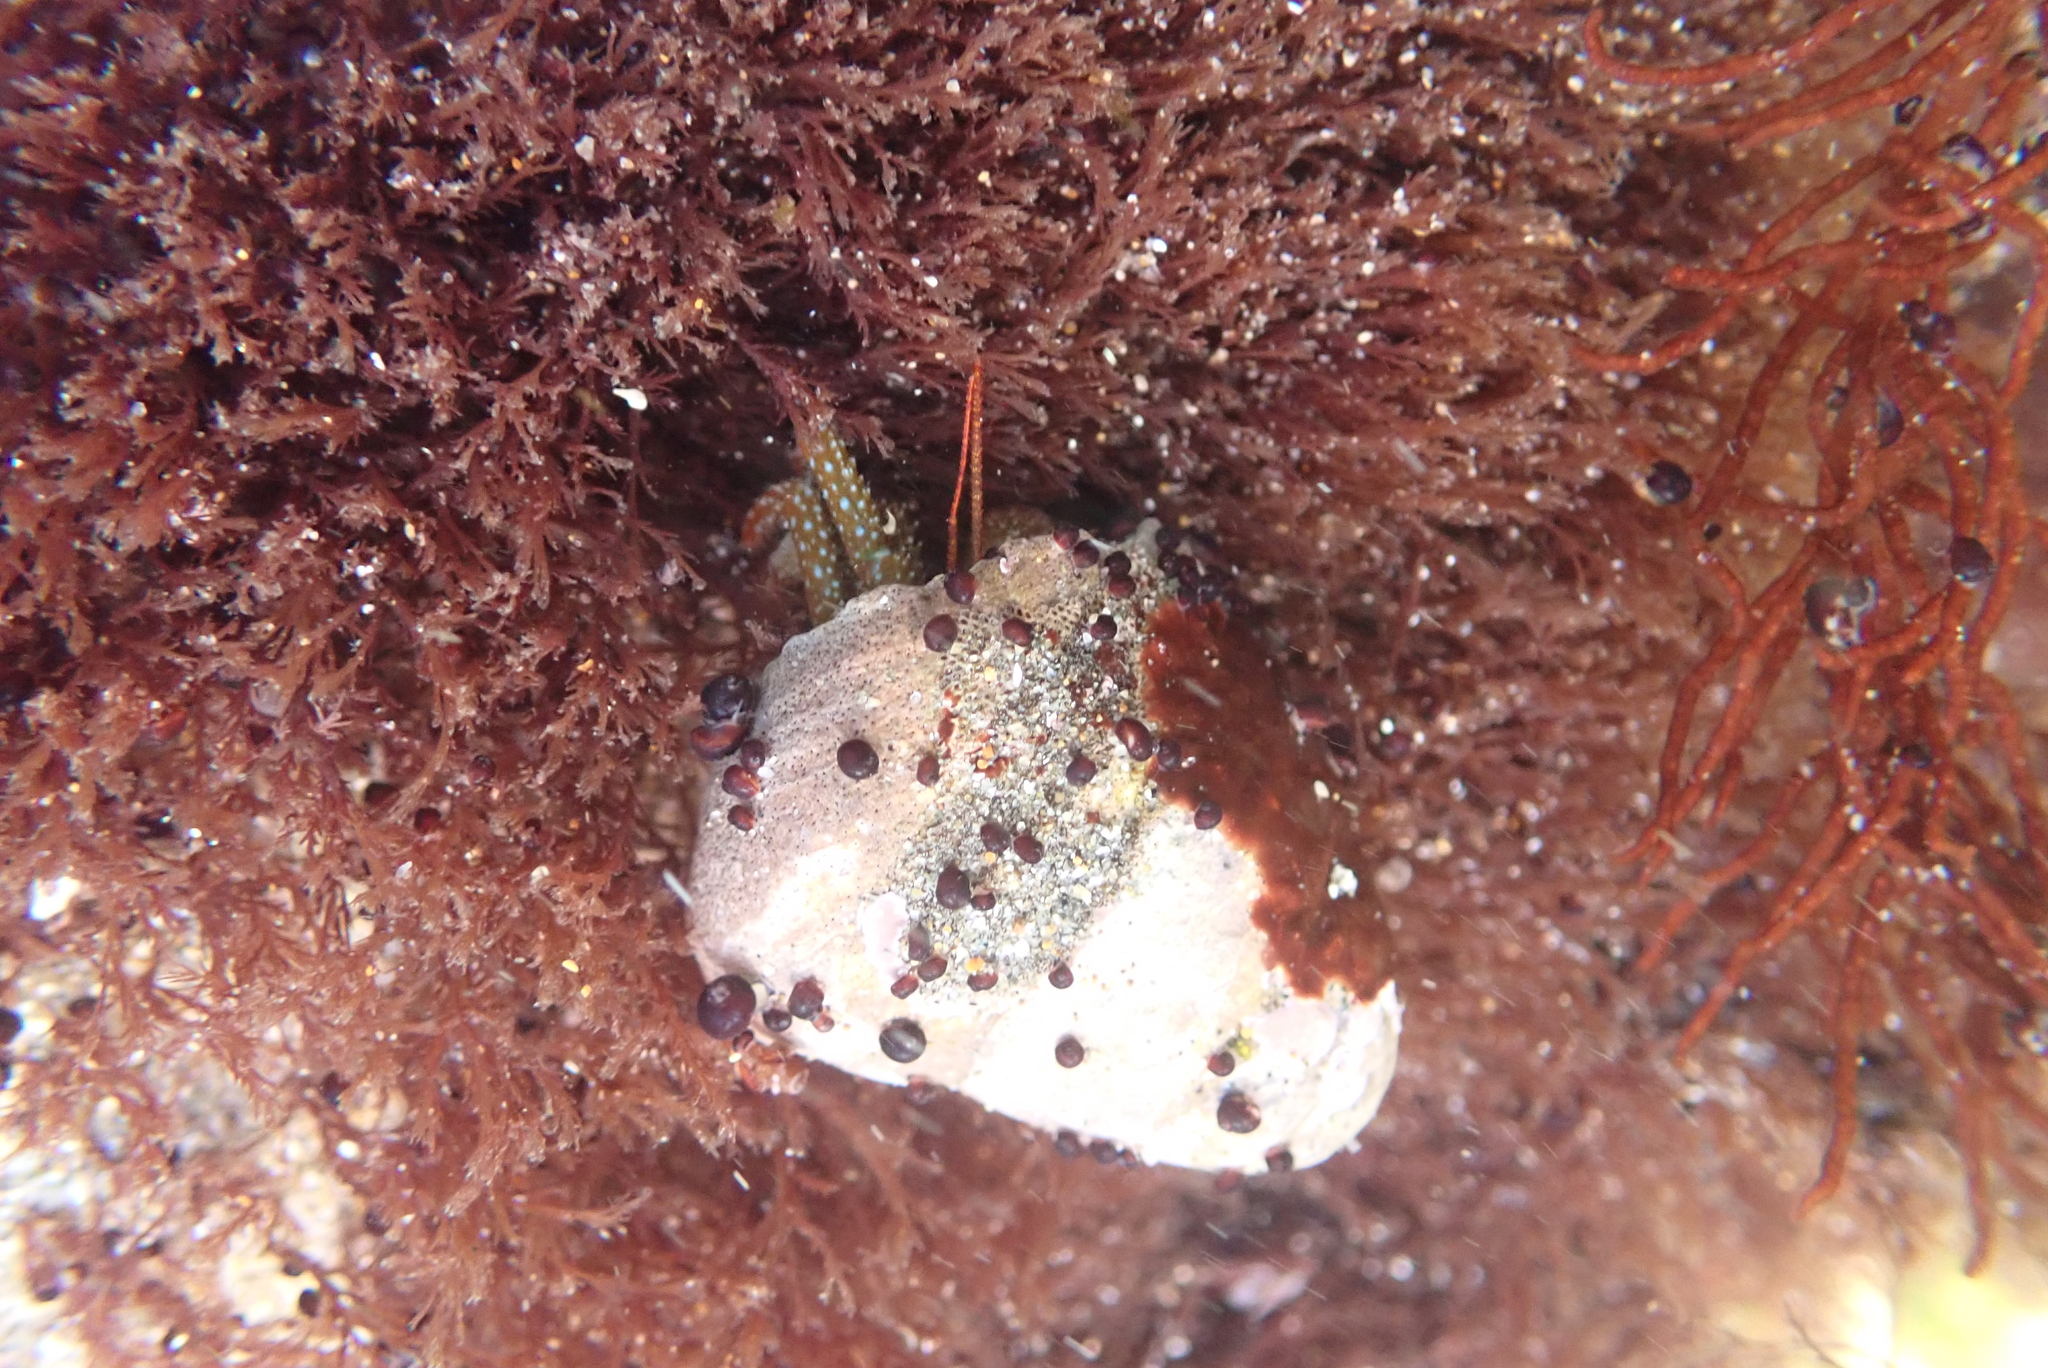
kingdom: Animalia
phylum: Arthropoda
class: Malacostraca
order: Decapoda
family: Paguridae
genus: Pagurus
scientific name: Pagurus granosimanus
